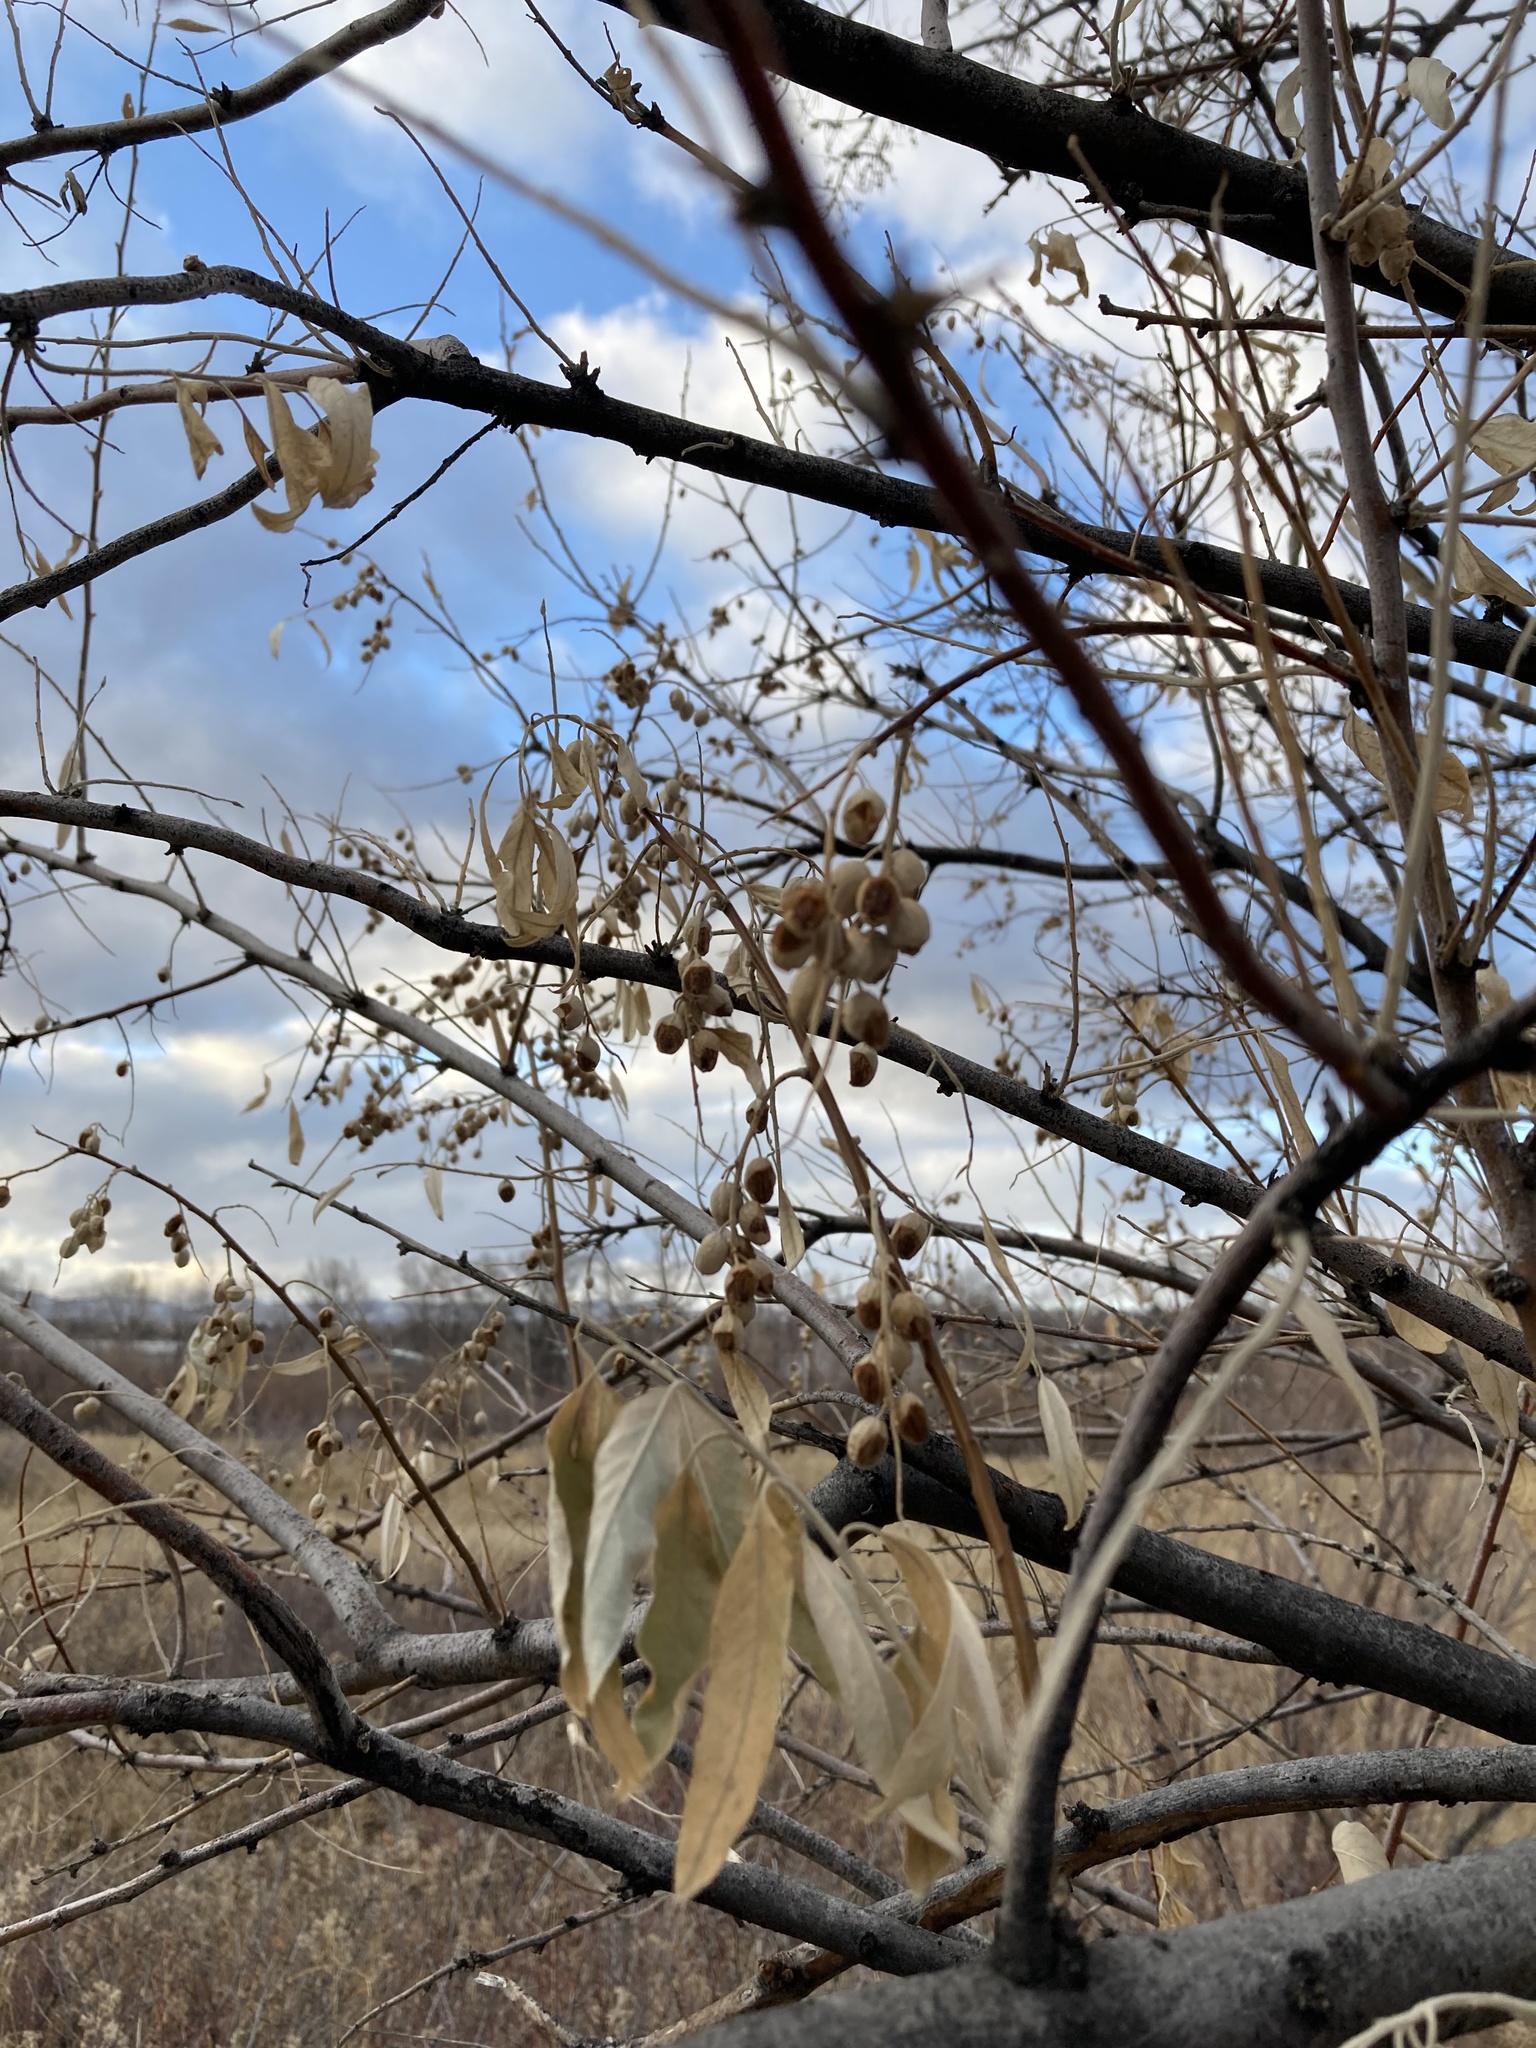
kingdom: Plantae
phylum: Tracheophyta
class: Magnoliopsida
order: Rosales
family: Elaeagnaceae
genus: Elaeagnus
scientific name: Elaeagnus angustifolia
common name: Russian olive
